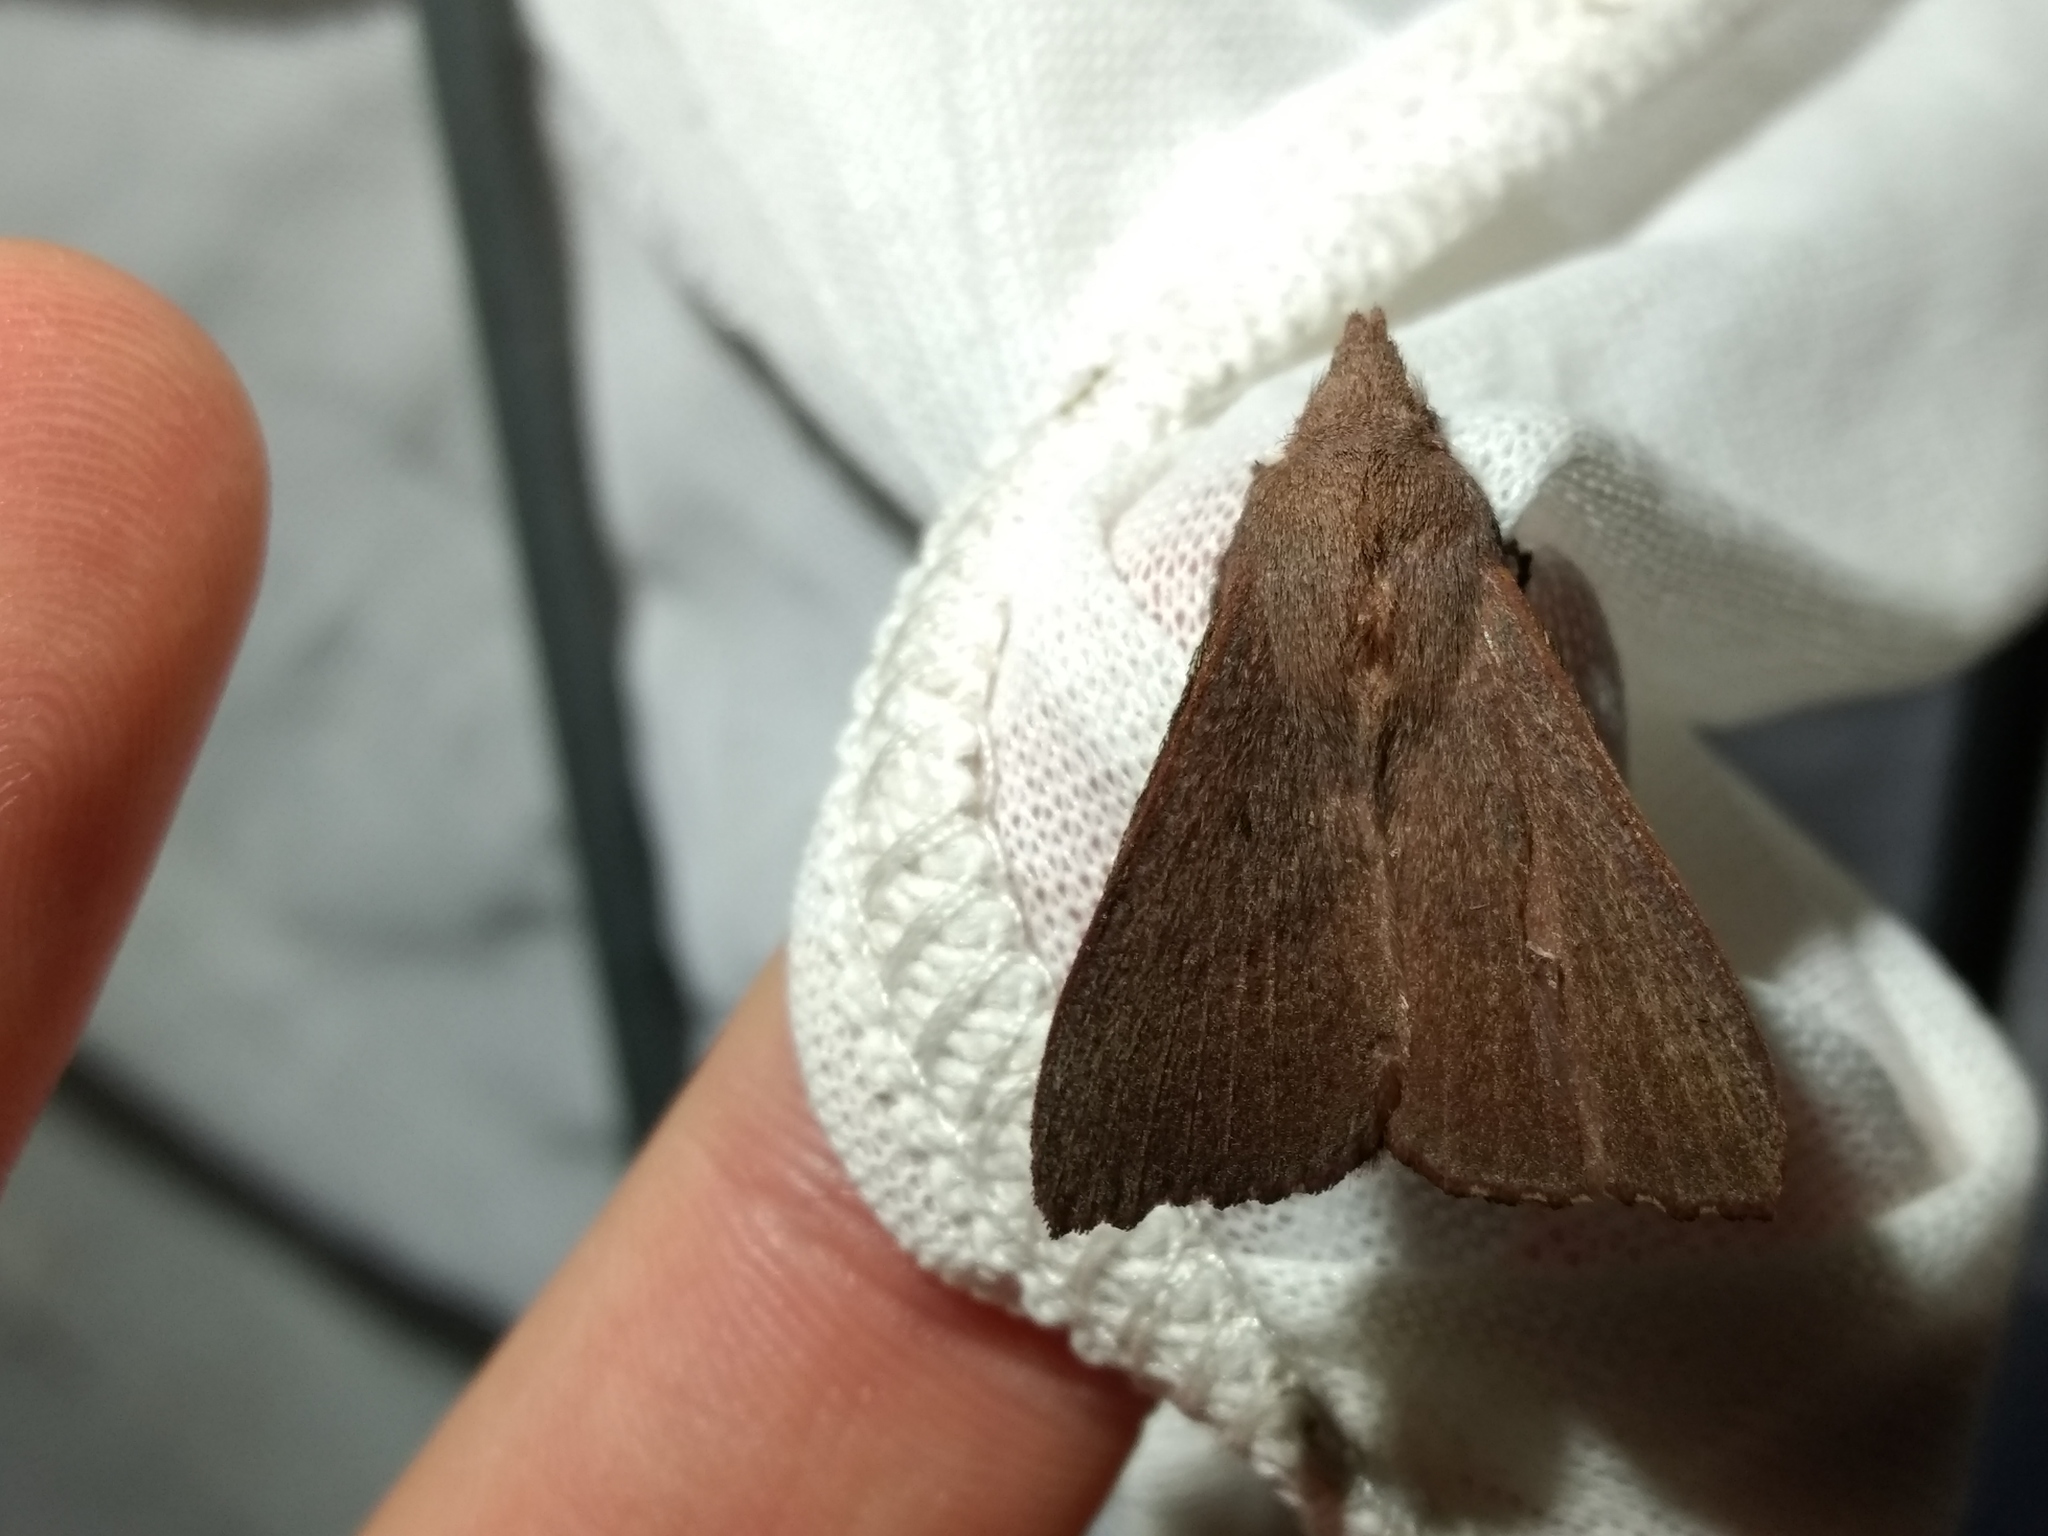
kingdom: Animalia
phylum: Arthropoda
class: Insecta
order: Lepidoptera
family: Lasiocampidae
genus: Pararguda
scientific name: Pararguda crenulata
